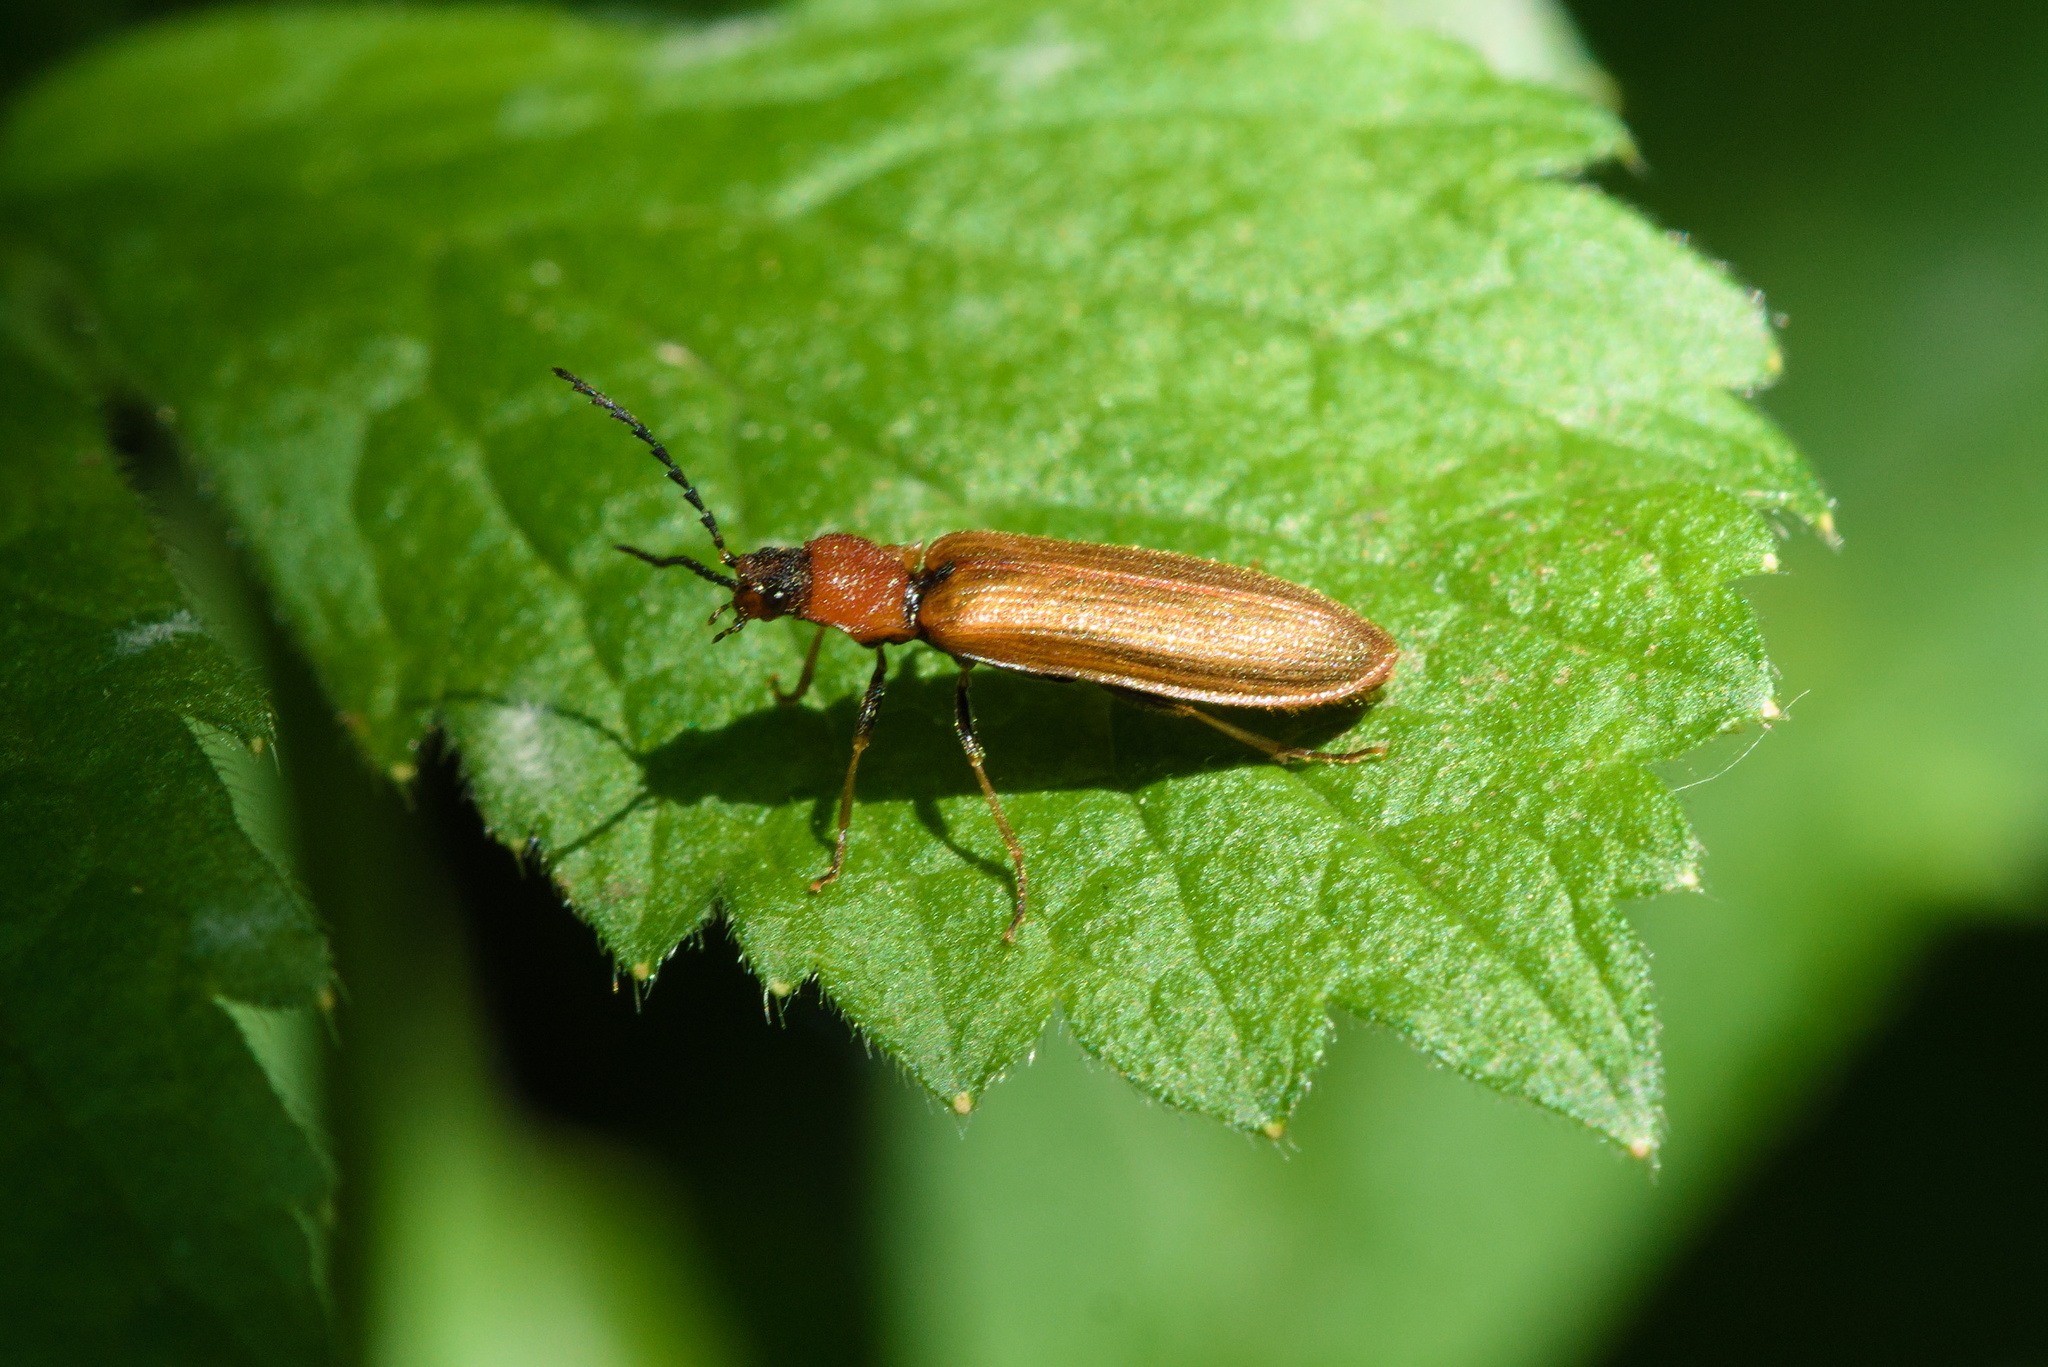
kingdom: Animalia
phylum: Arthropoda
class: Insecta
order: Coleoptera
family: Elateridae
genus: Denticollis
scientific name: Denticollis linearis
